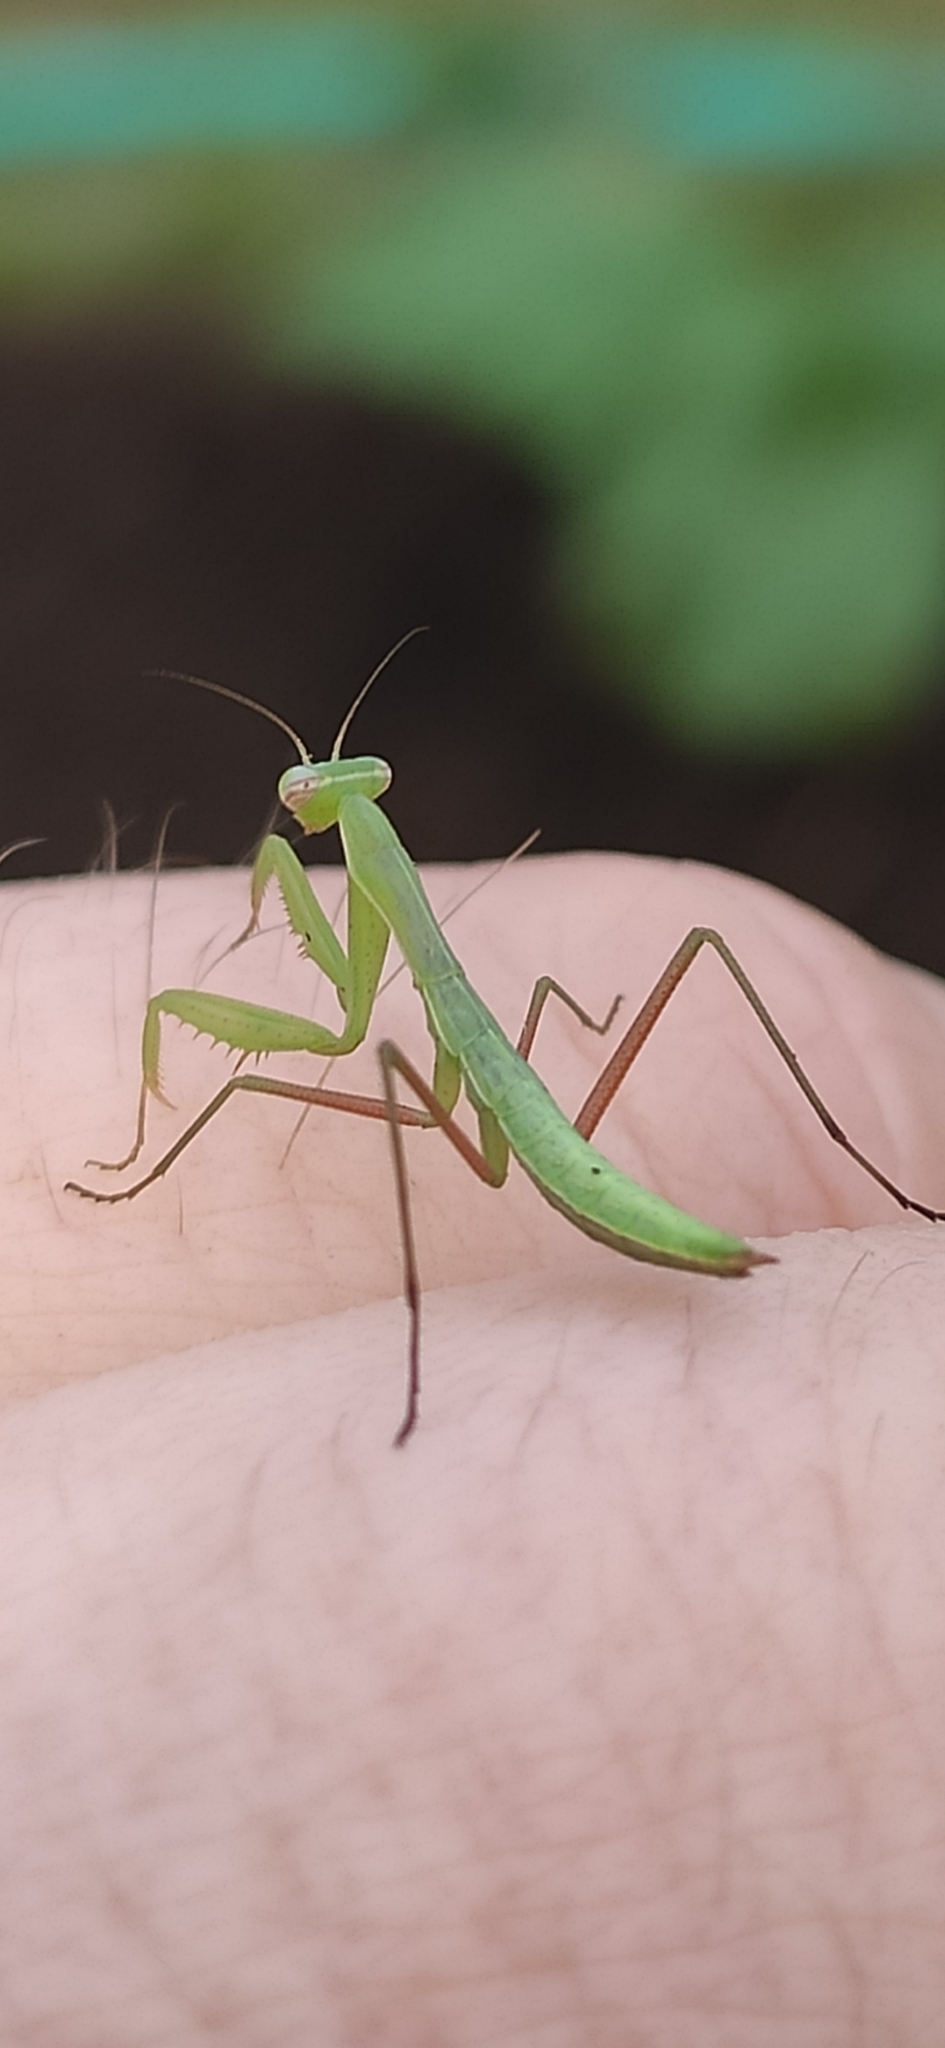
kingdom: Animalia
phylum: Arthropoda
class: Insecta
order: Mantodea
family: Mantidae
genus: Mantis
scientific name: Mantis religiosa
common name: Praying mantis
